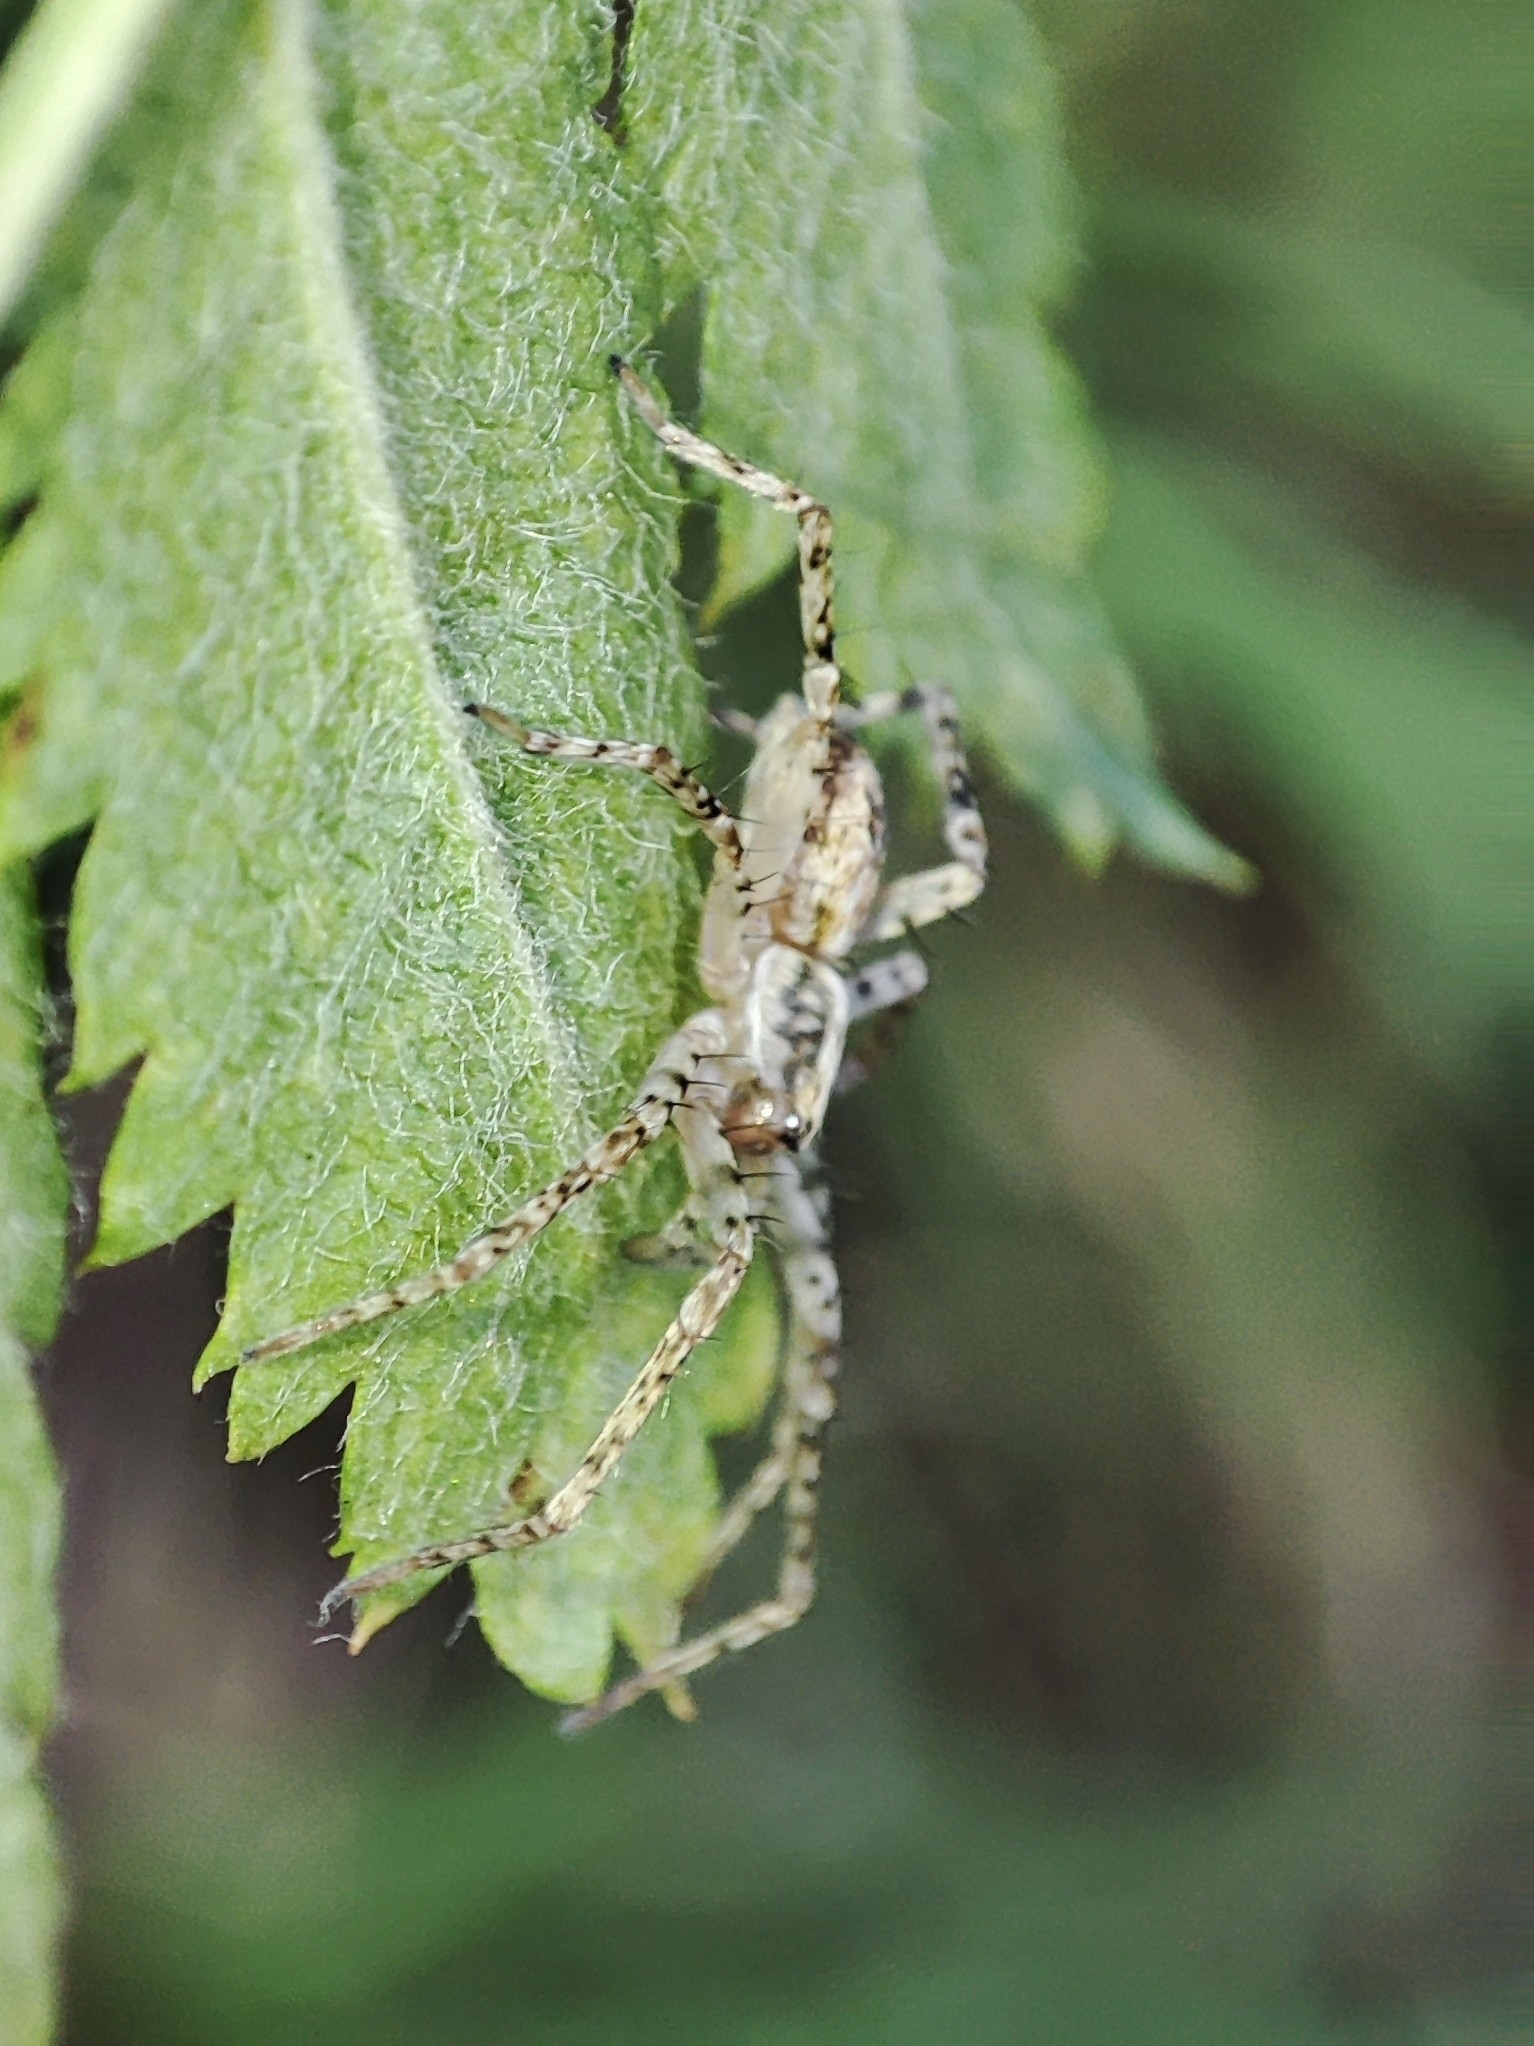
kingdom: Animalia
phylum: Arthropoda
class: Arachnida
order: Araneae
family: Anyphaenidae
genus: Anyphaena
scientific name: Anyphaena accentuata
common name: Buzzing spider
